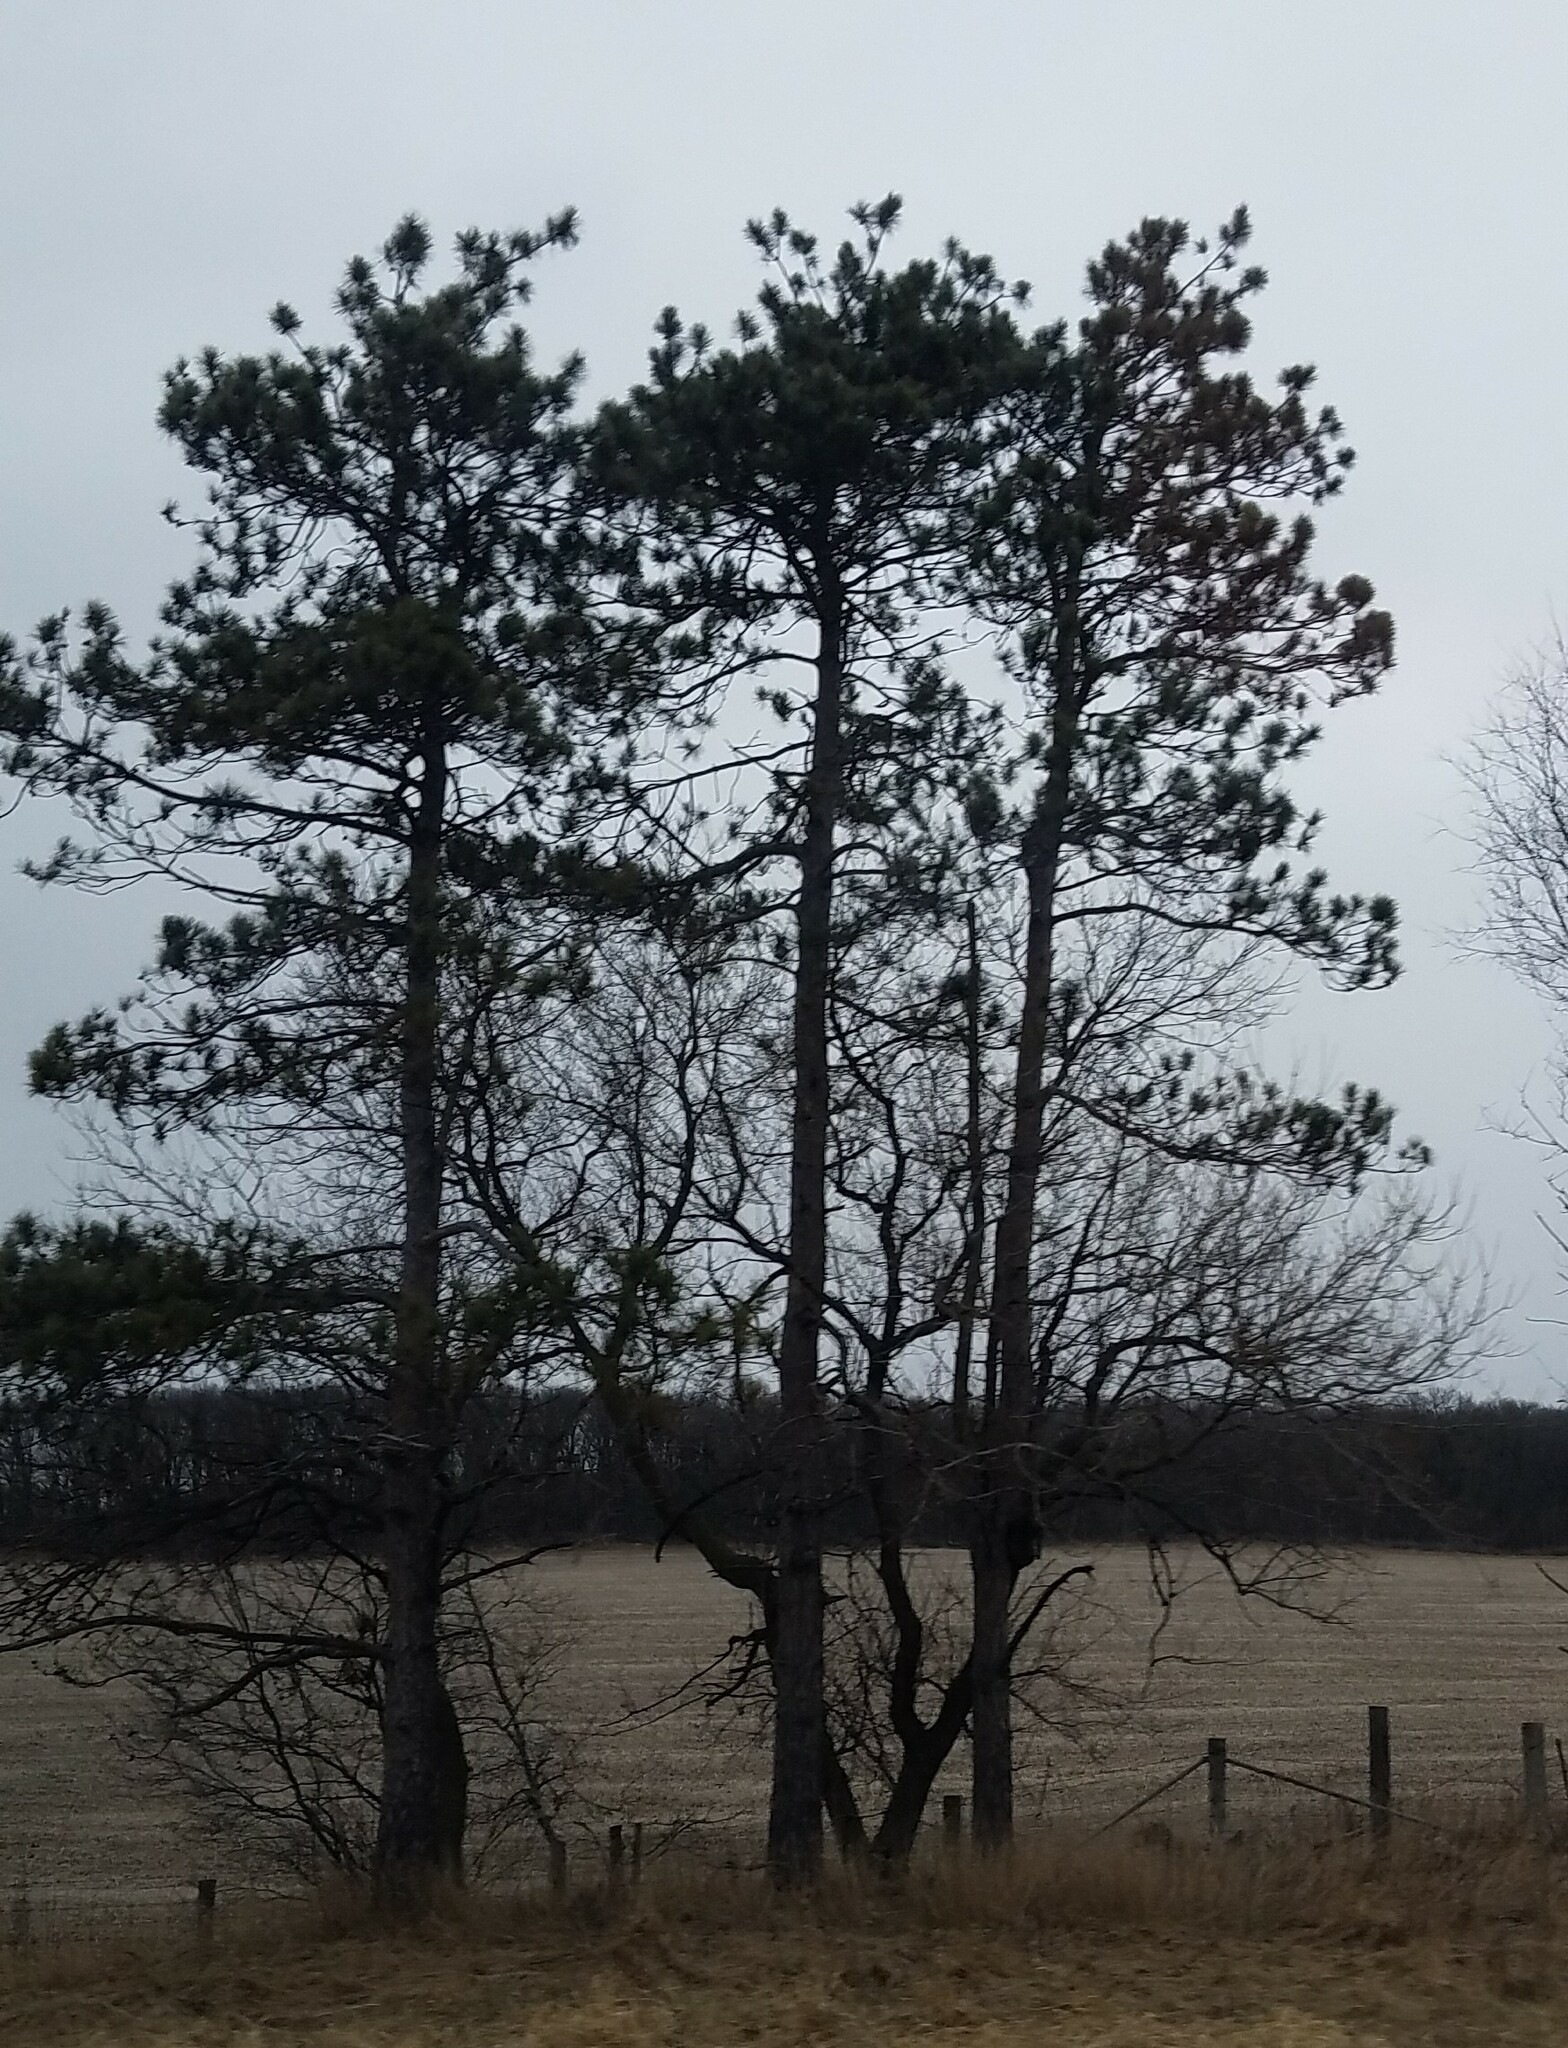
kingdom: Plantae
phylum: Tracheophyta
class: Pinopsida
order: Pinales
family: Pinaceae
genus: Pinus
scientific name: Pinus resinosa
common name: Norway pine
